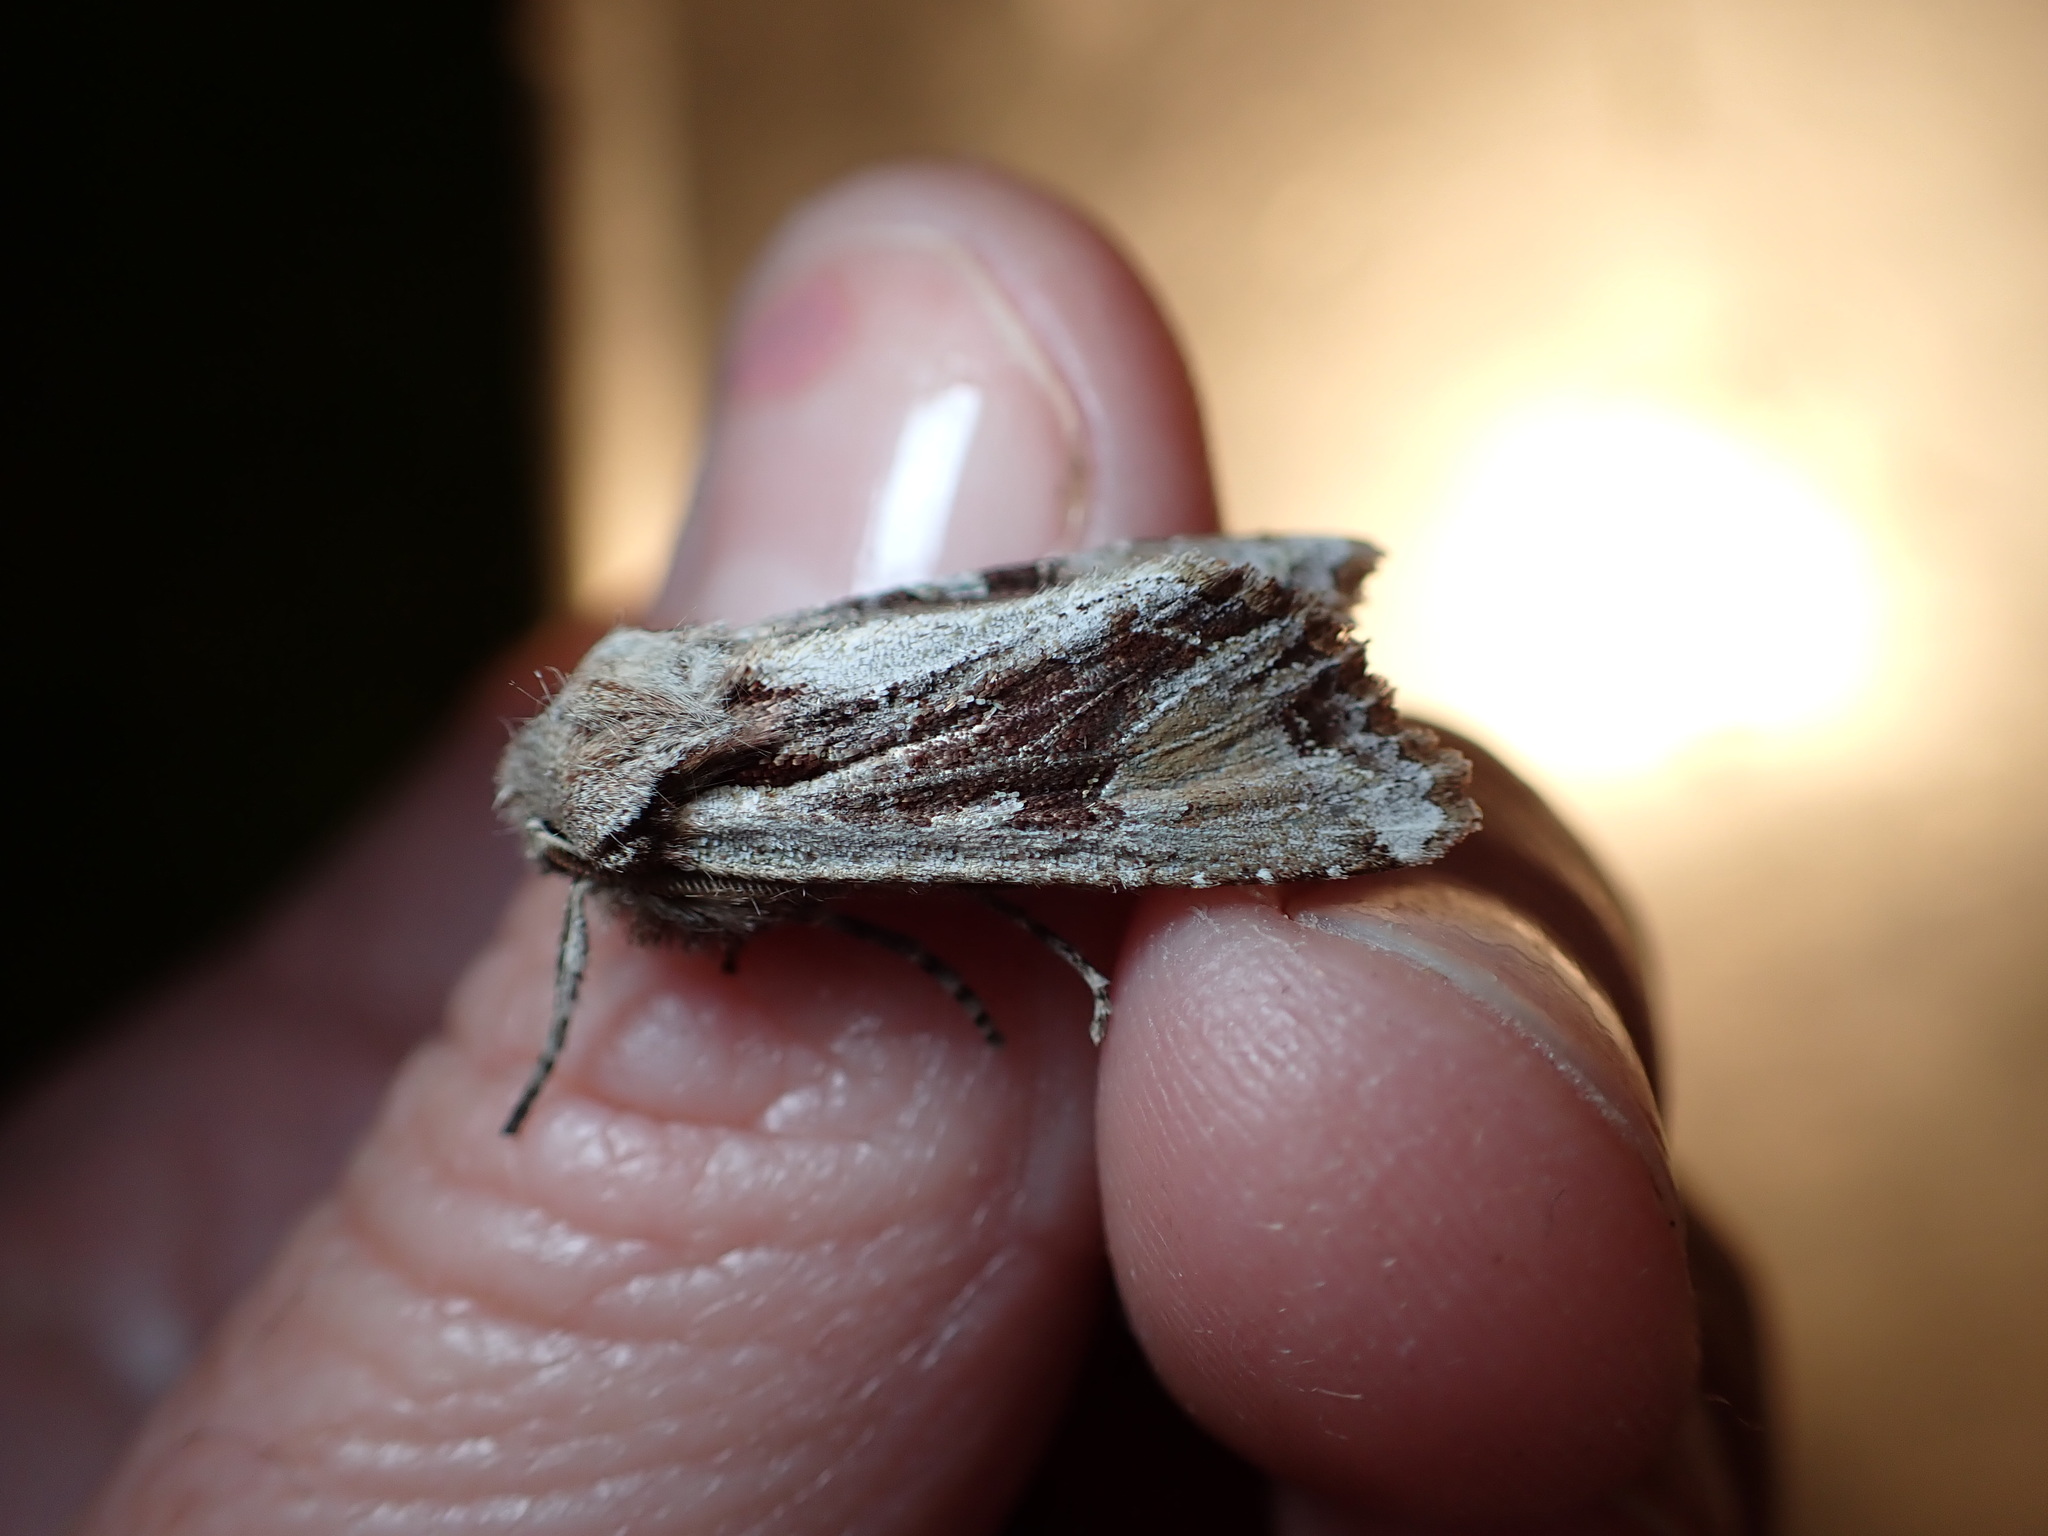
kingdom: Animalia
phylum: Arthropoda
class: Insecta
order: Lepidoptera
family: Noctuidae
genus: Ichneutica
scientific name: Ichneutica
